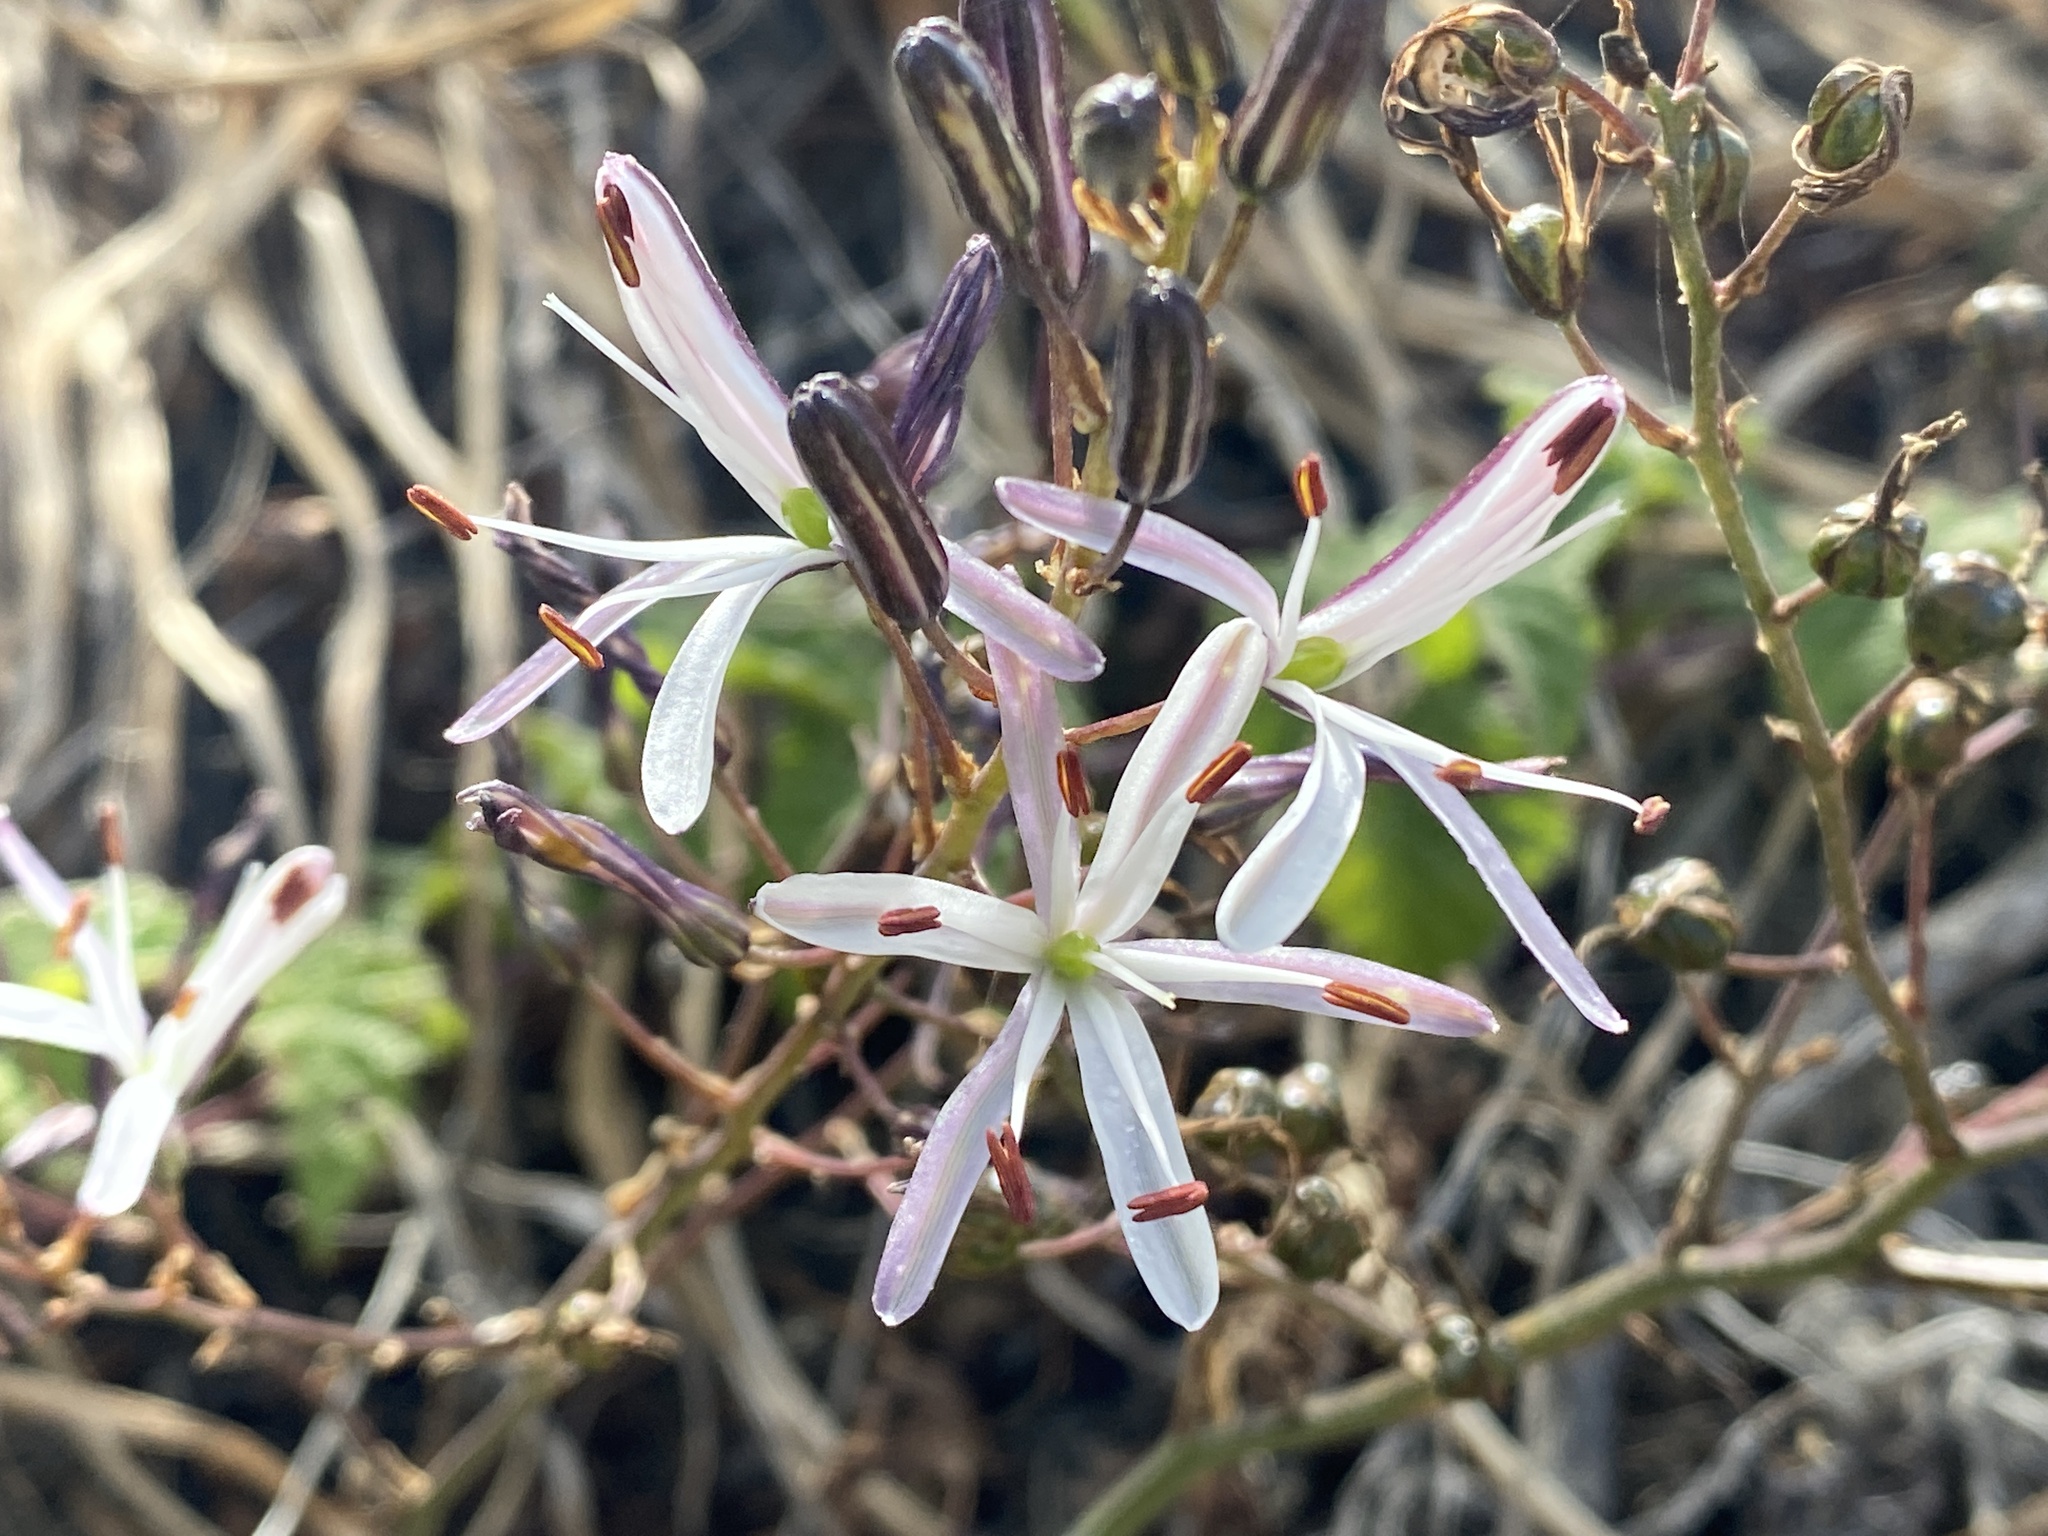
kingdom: Plantae
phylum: Tracheophyta
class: Liliopsida
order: Asparagales
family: Asparagaceae
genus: Chlorogalum
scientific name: Chlorogalum pomeridianum
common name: Amole
